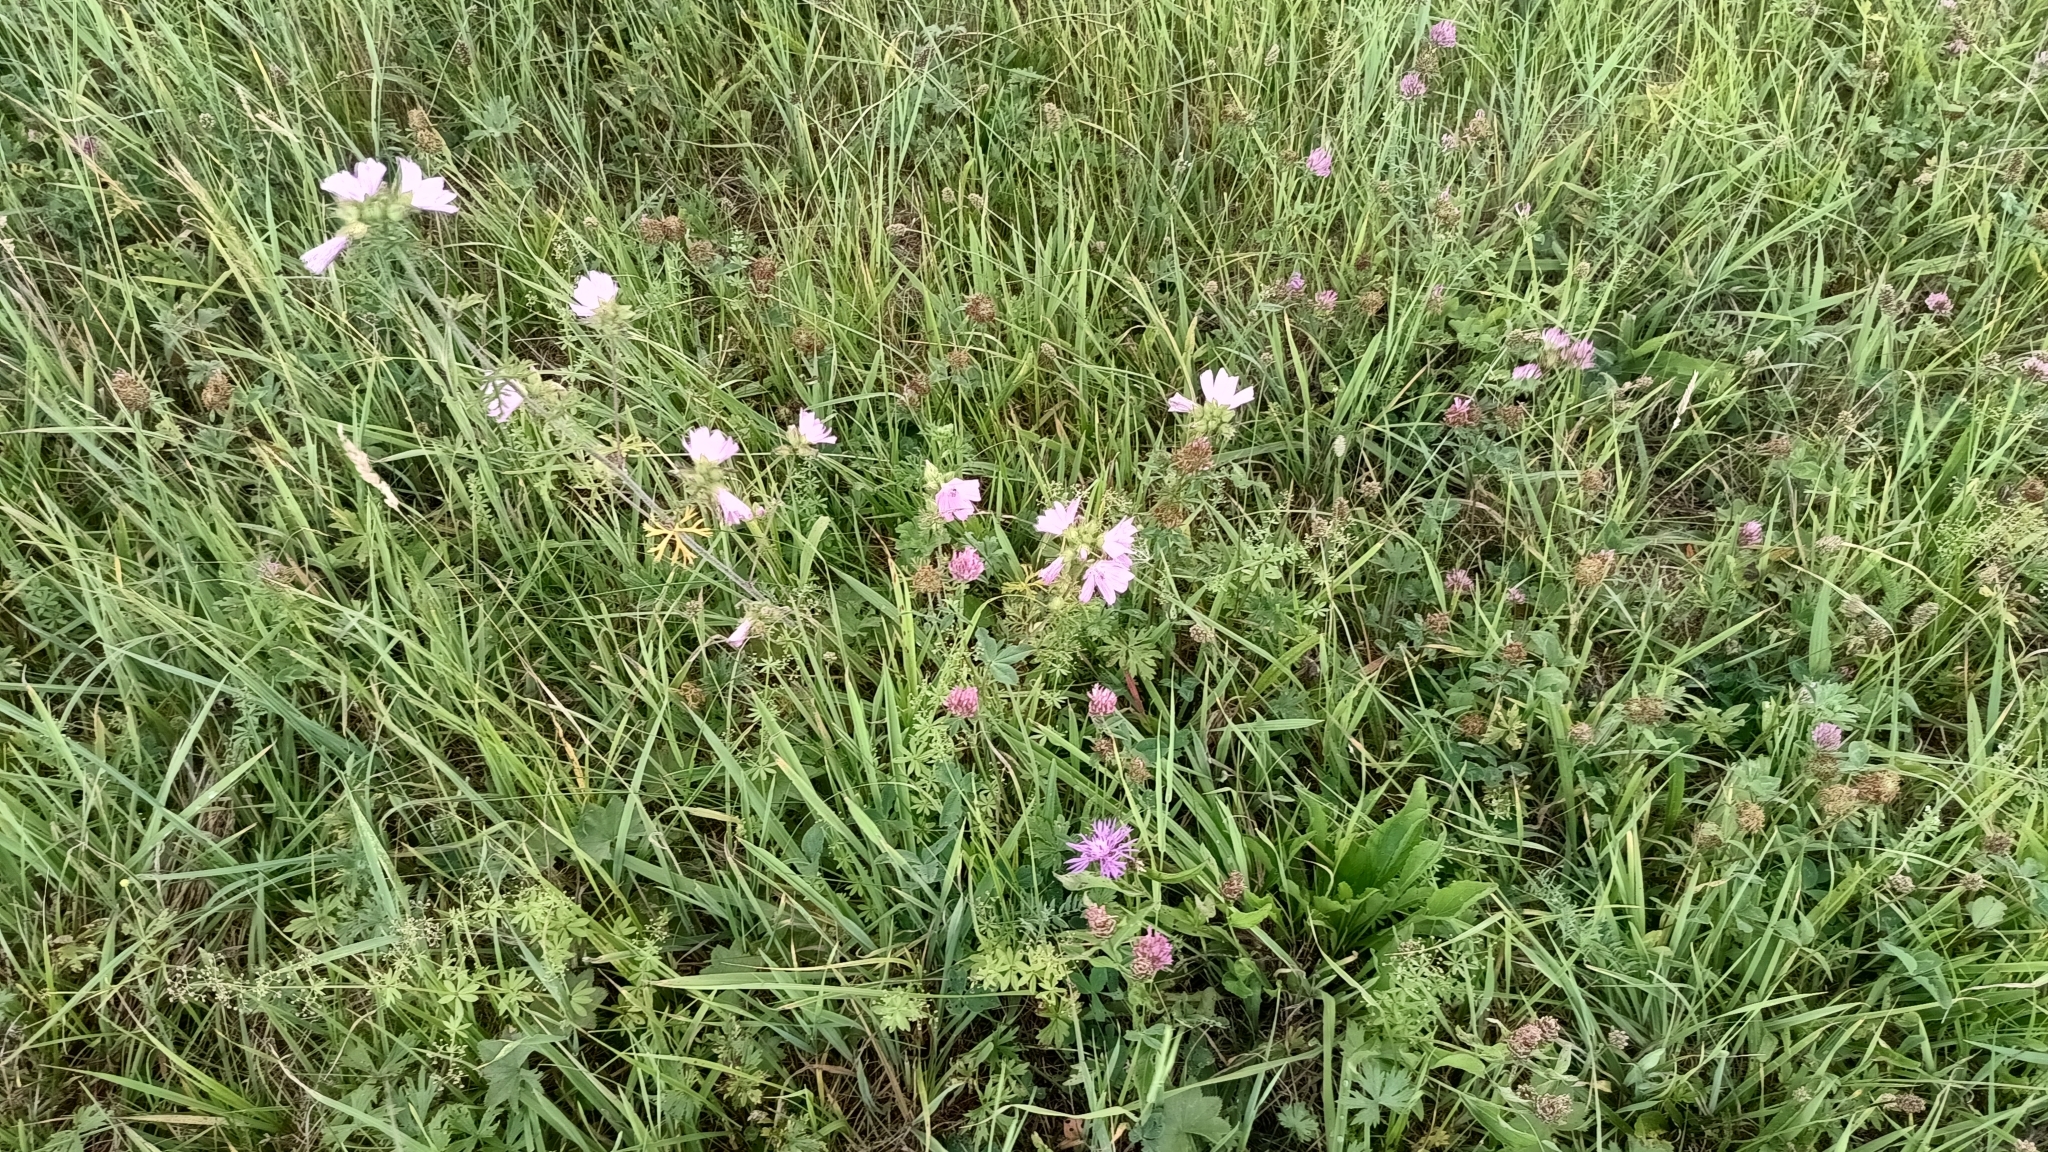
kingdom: Plantae
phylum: Tracheophyta
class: Magnoliopsida
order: Malvales
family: Malvaceae
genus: Malva
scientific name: Malva moschata
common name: Musk mallow
